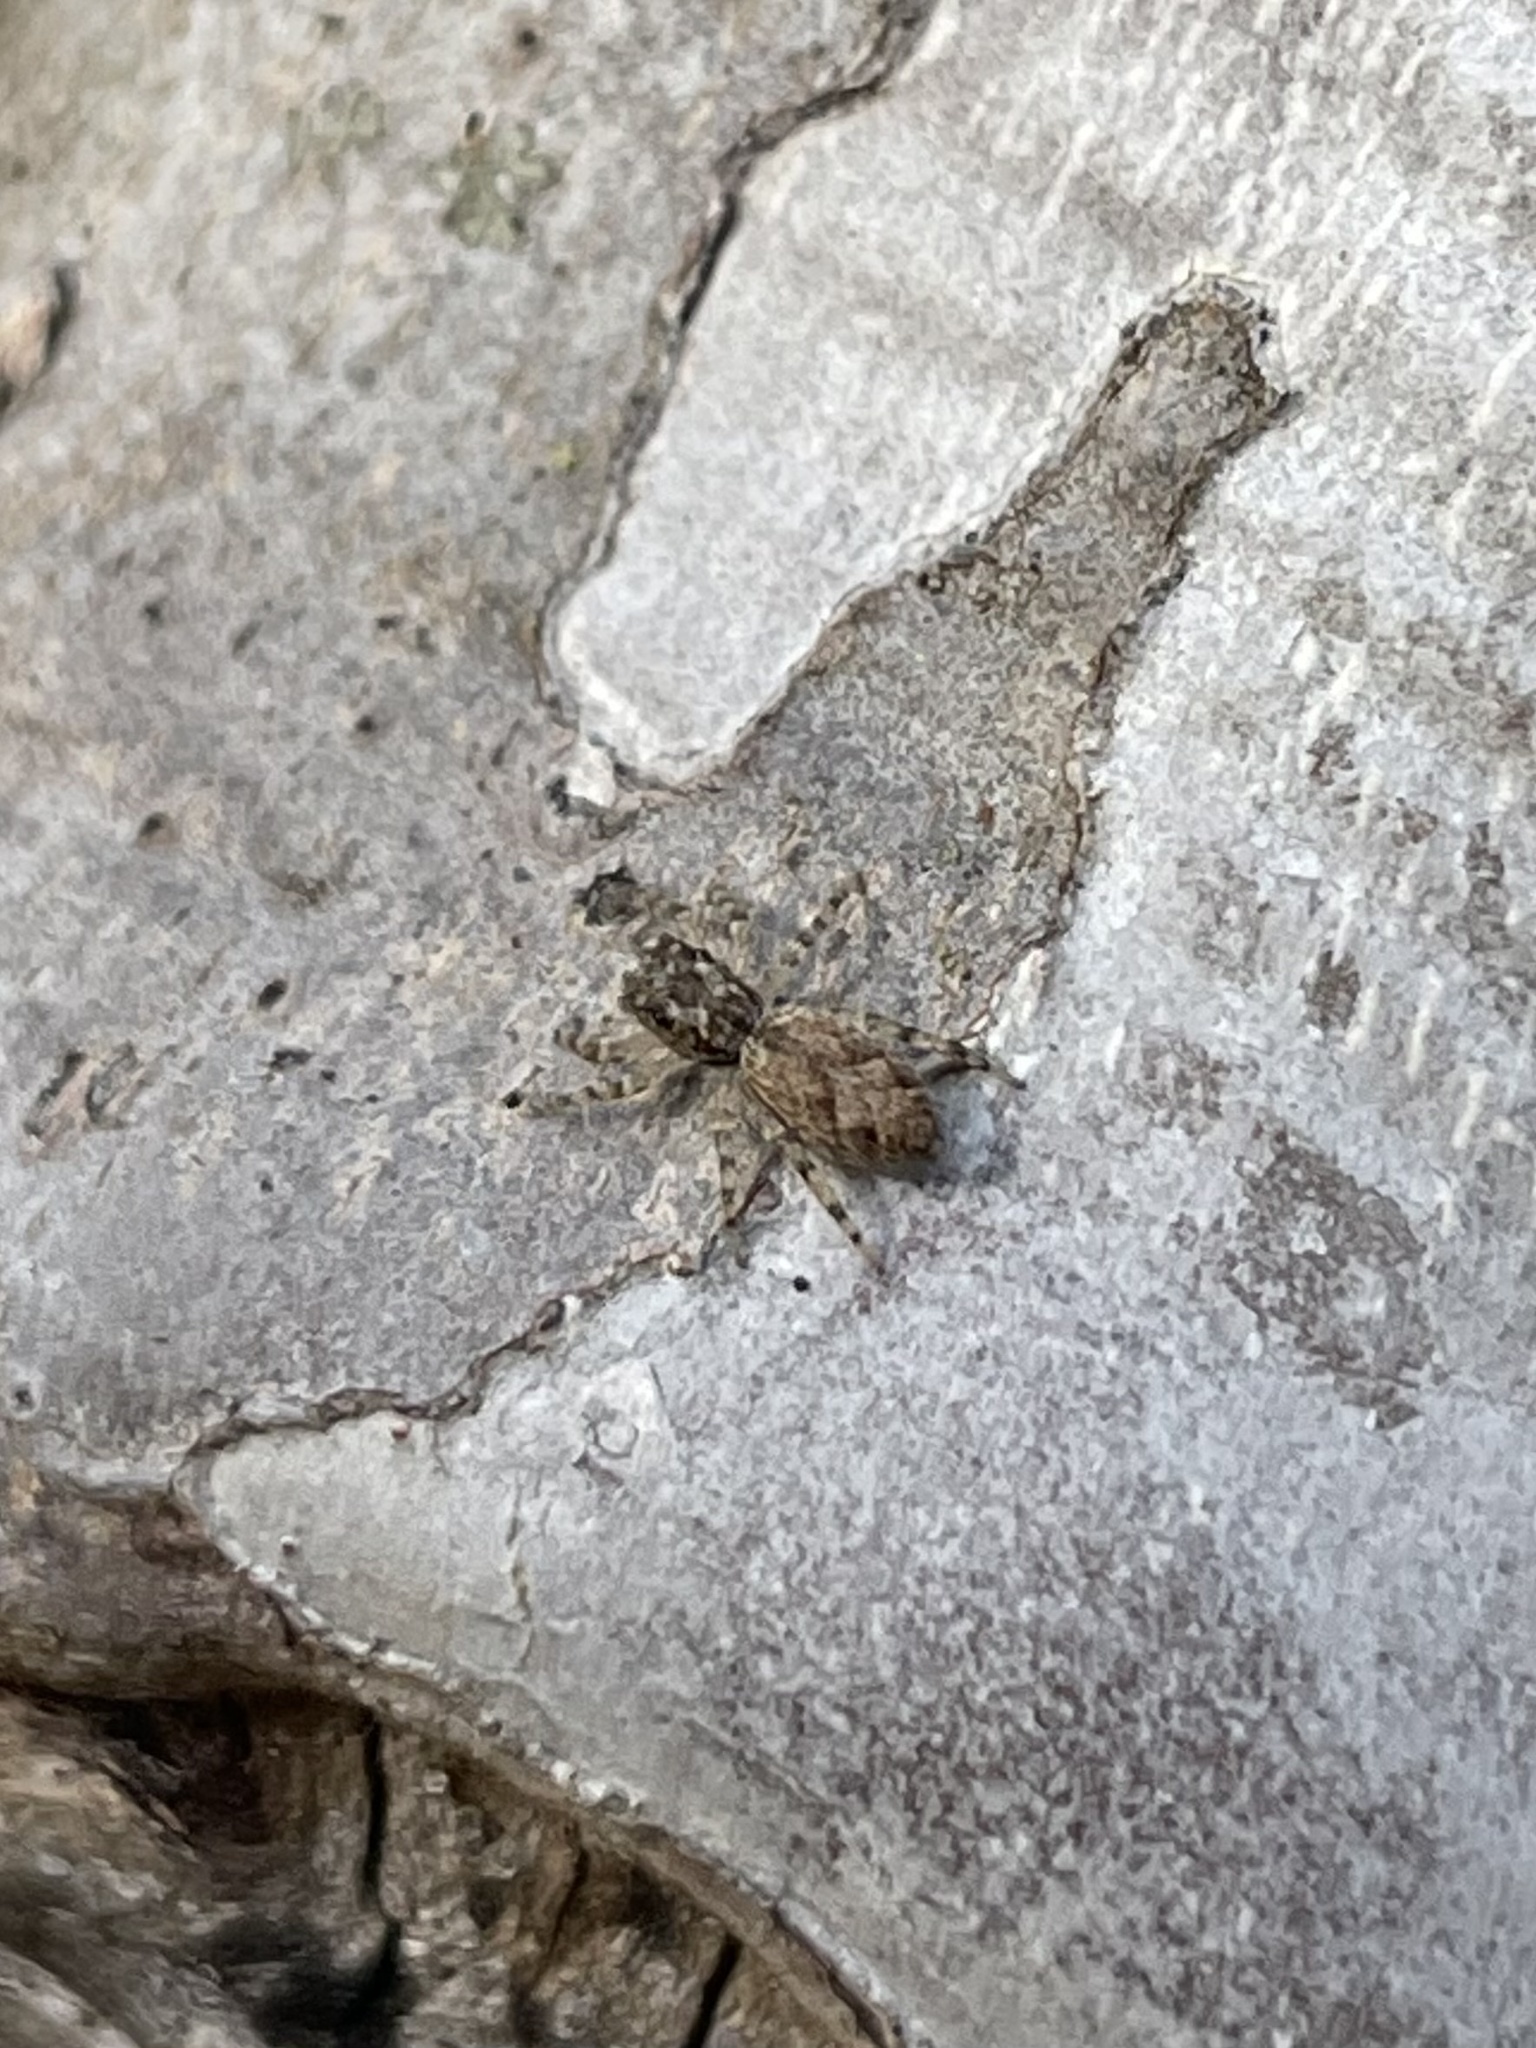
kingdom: Animalia
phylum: Arthropoda
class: Arachnida
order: Araneae
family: Salticidae
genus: Platycryptus
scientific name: Platycryptus undatus
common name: Tan jumping spider
